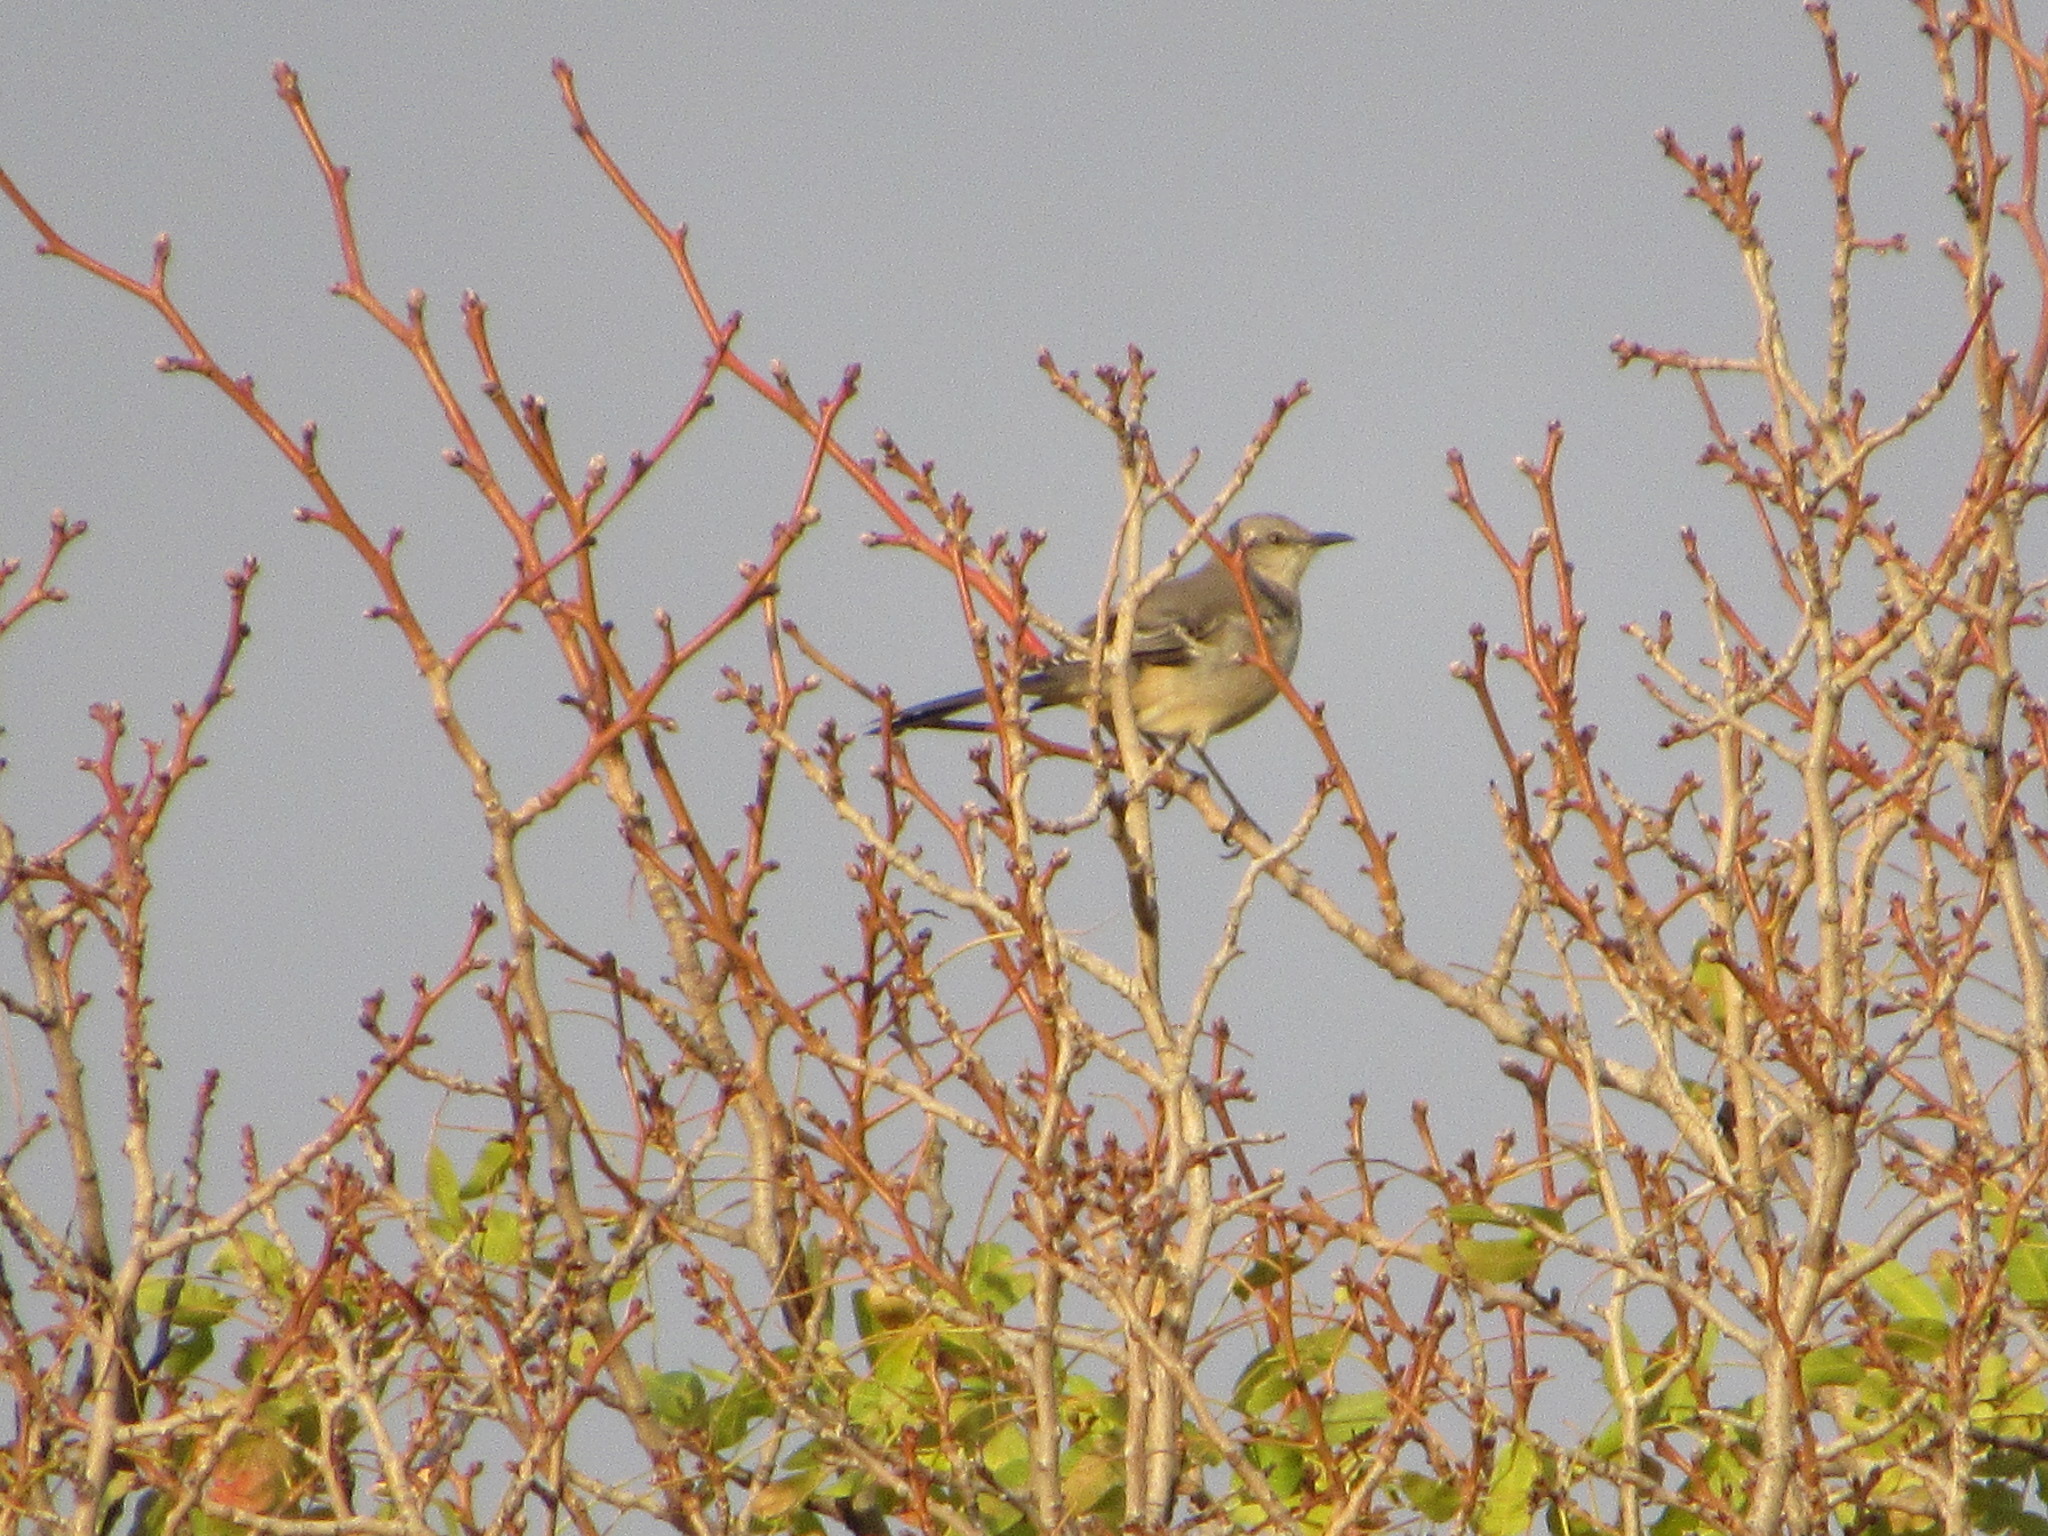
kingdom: Animalia
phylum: Chordata
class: Aves
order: Passeriformes
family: Mimidae
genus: Mimus
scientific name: Mimus polyglottos
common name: Northern mockingbird
